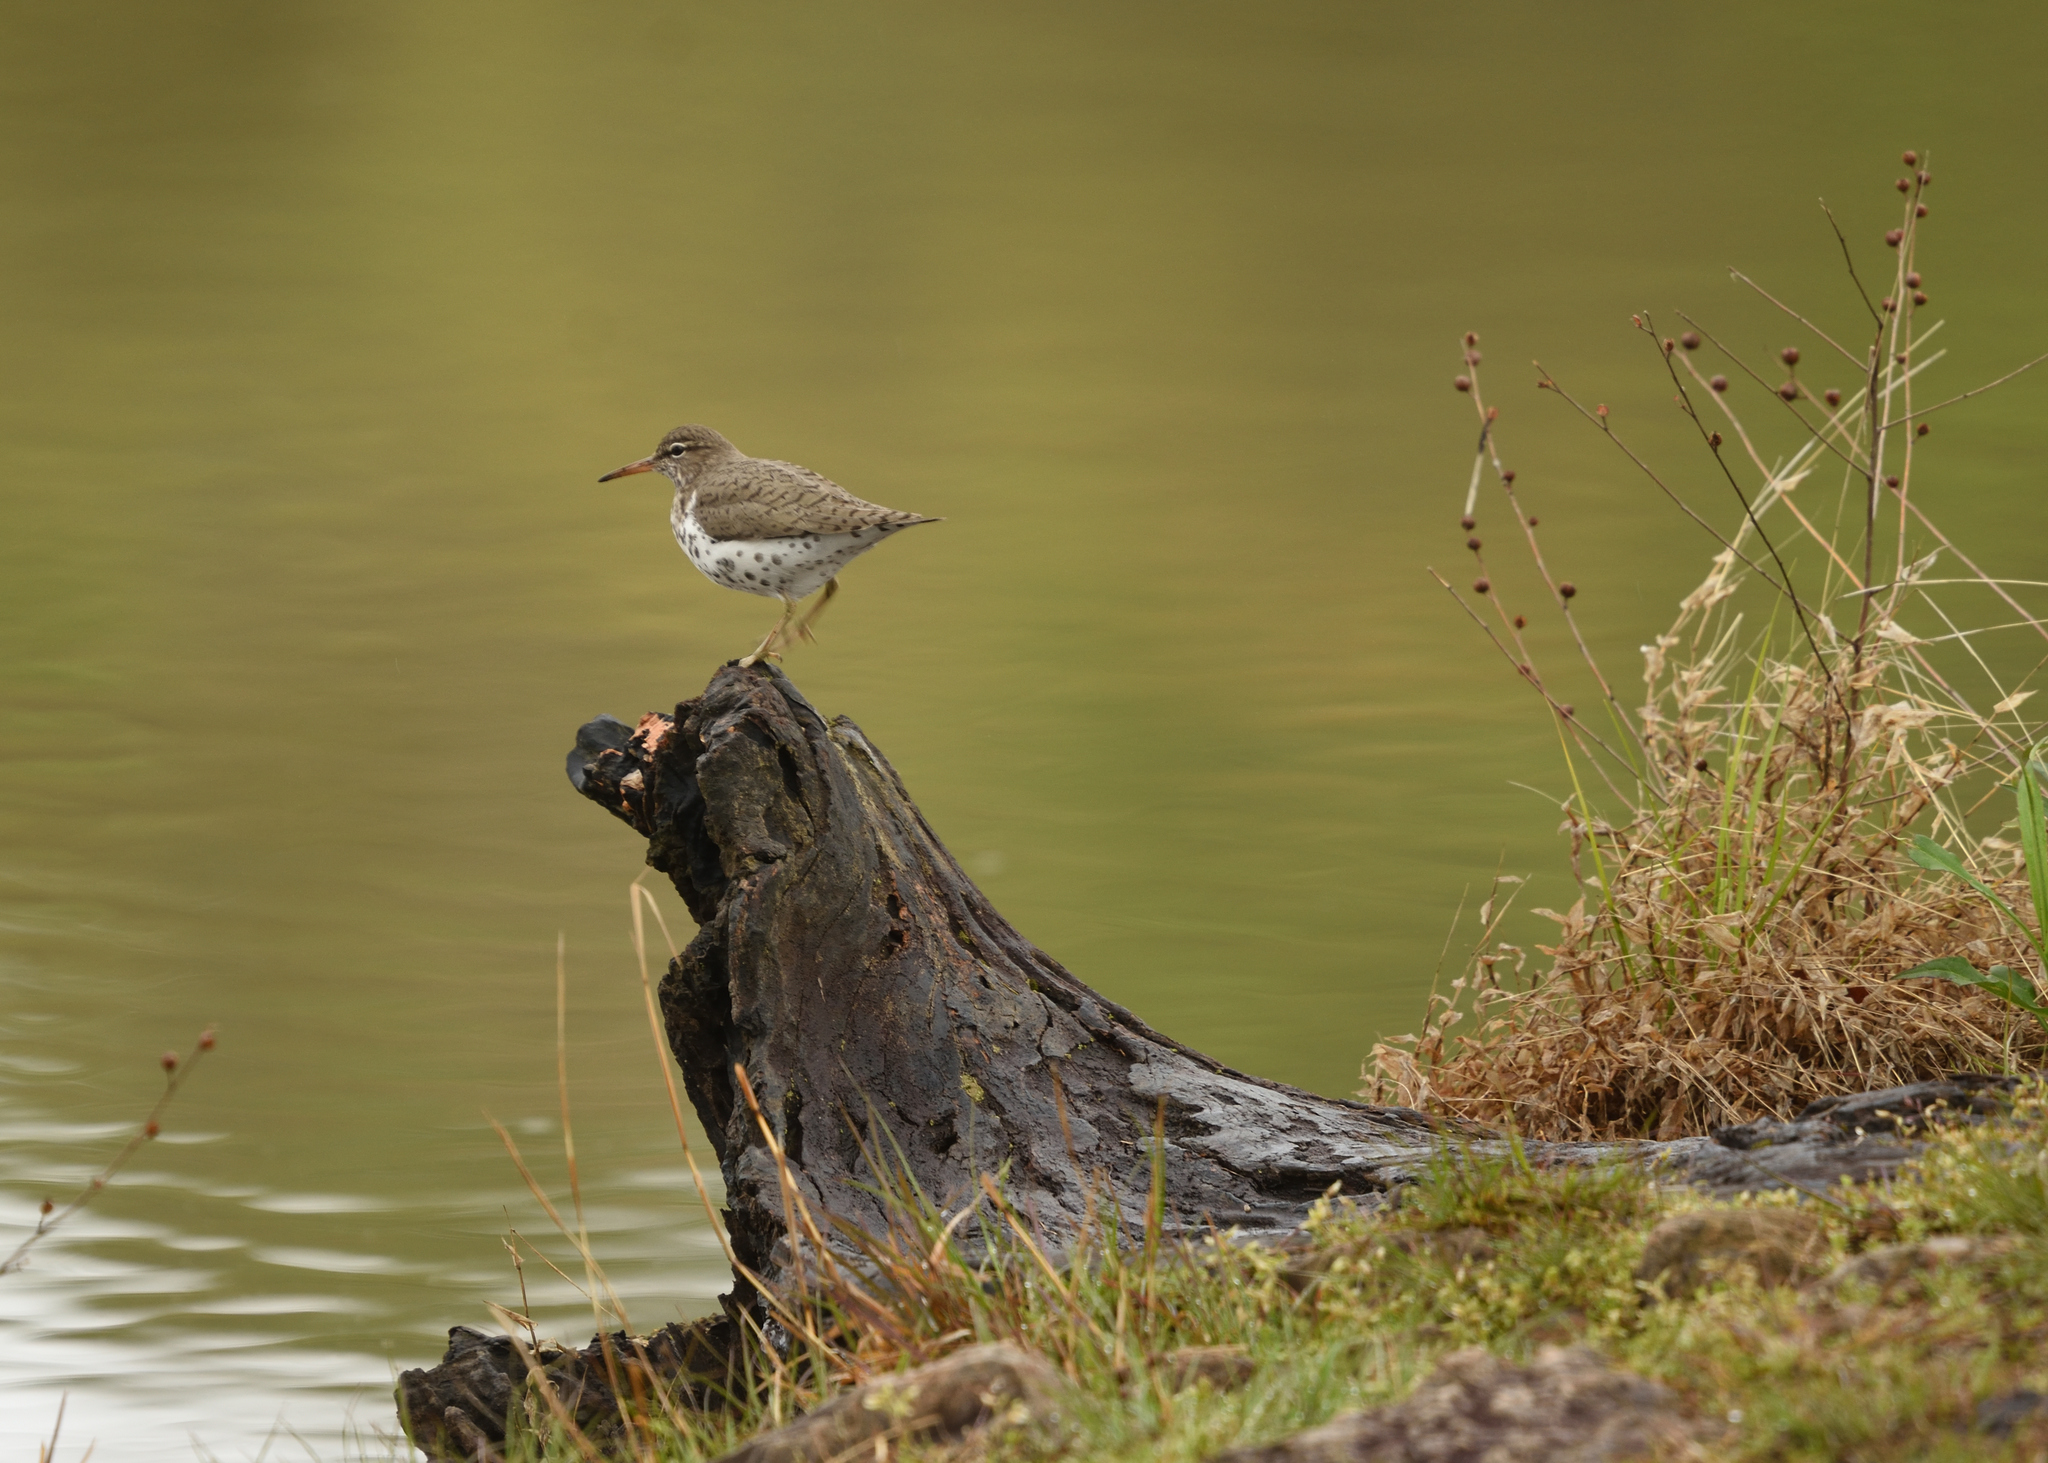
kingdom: Animalia
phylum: Chordata
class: Aves
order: Charadriiformes
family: Scolopacidae
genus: Actitis
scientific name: Actitis macularius
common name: Spotted sandpiper
